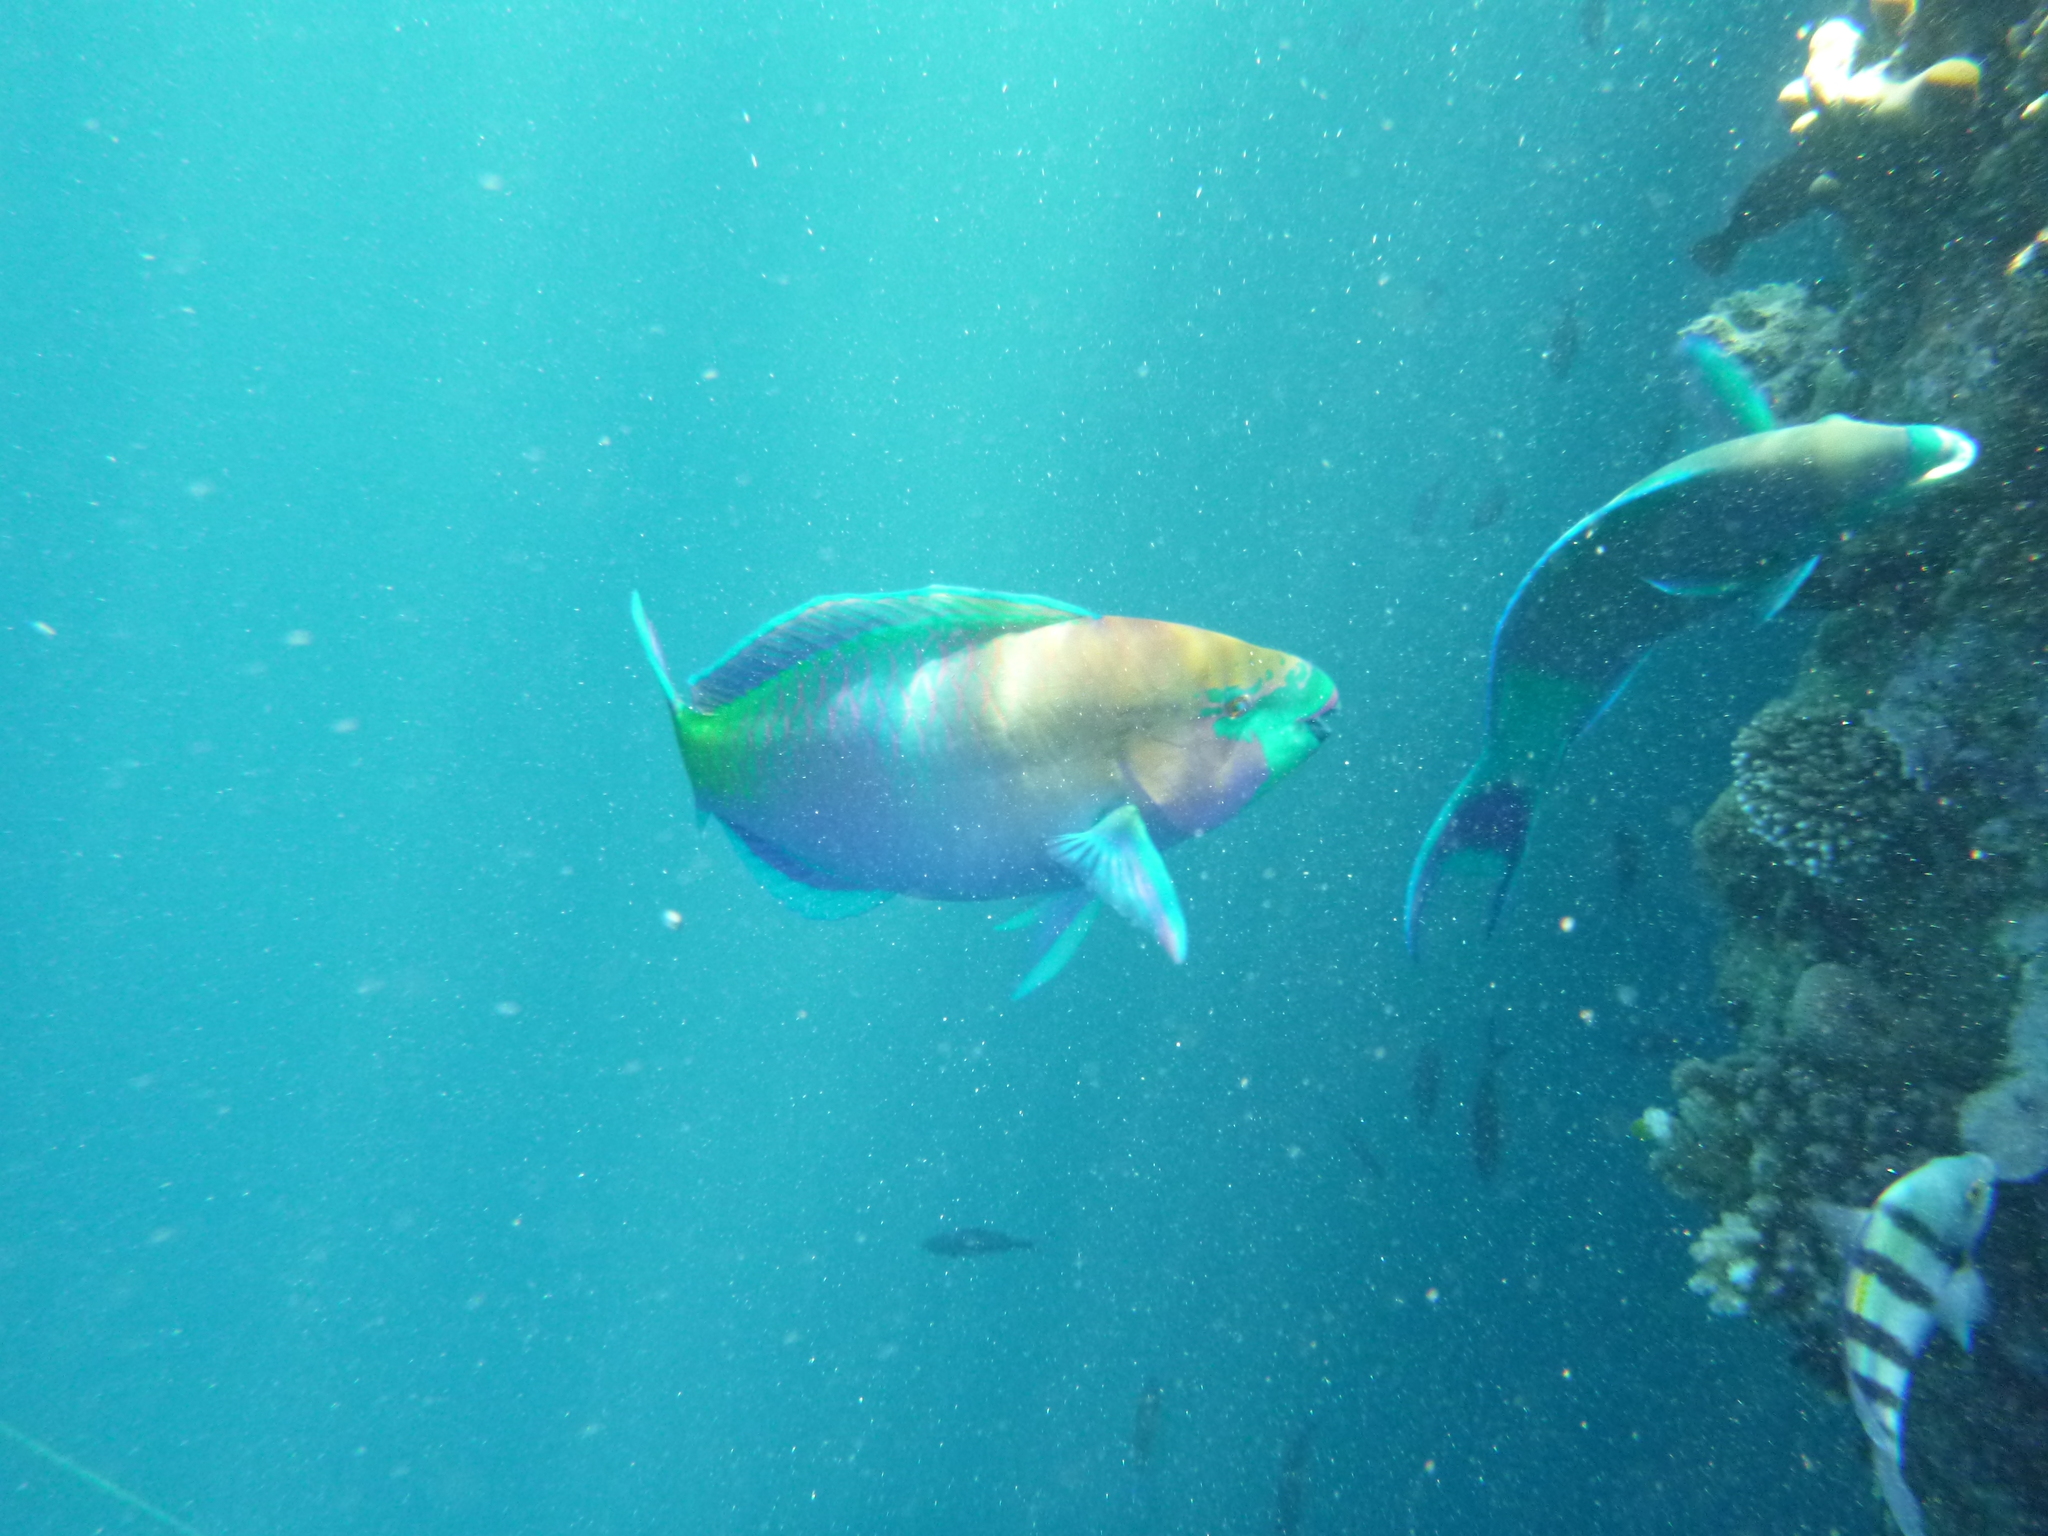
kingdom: Animalia
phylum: Chordata
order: Perciformes
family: Scaridae
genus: Scarus
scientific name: Scarus ferrugineus
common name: Rusty parrotfish
